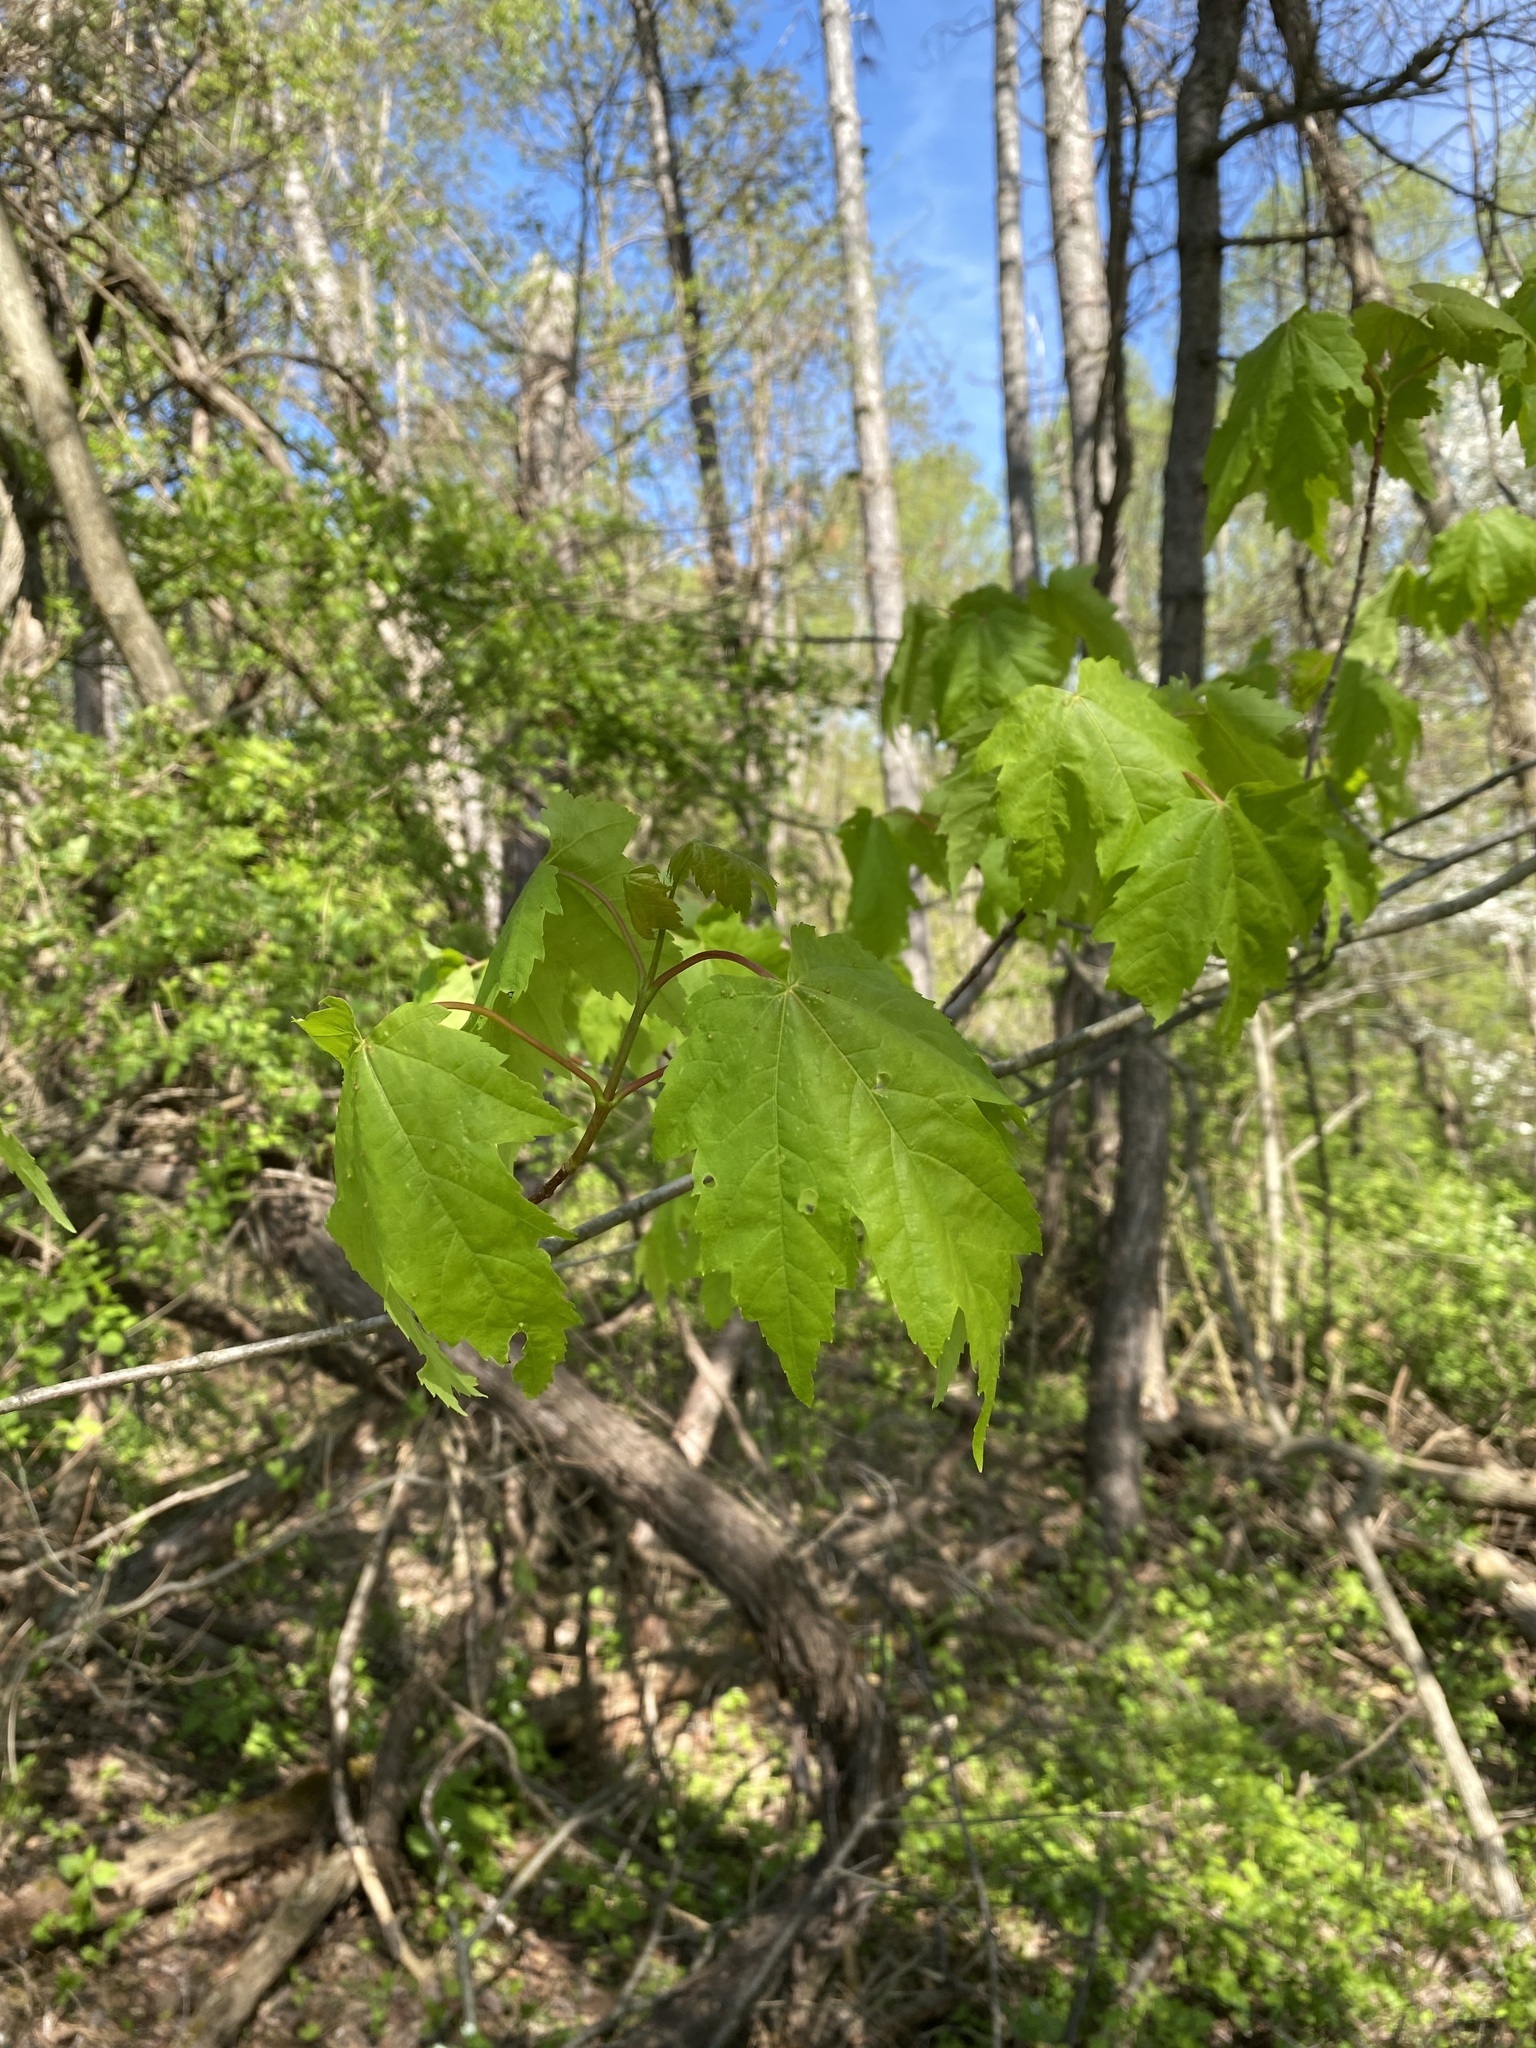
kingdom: Plantae
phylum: Tracheophyta
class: Magnoliopsida
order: Sapindales
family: Sapindaceae
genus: Acer
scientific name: Acer rubrum
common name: Red maple
